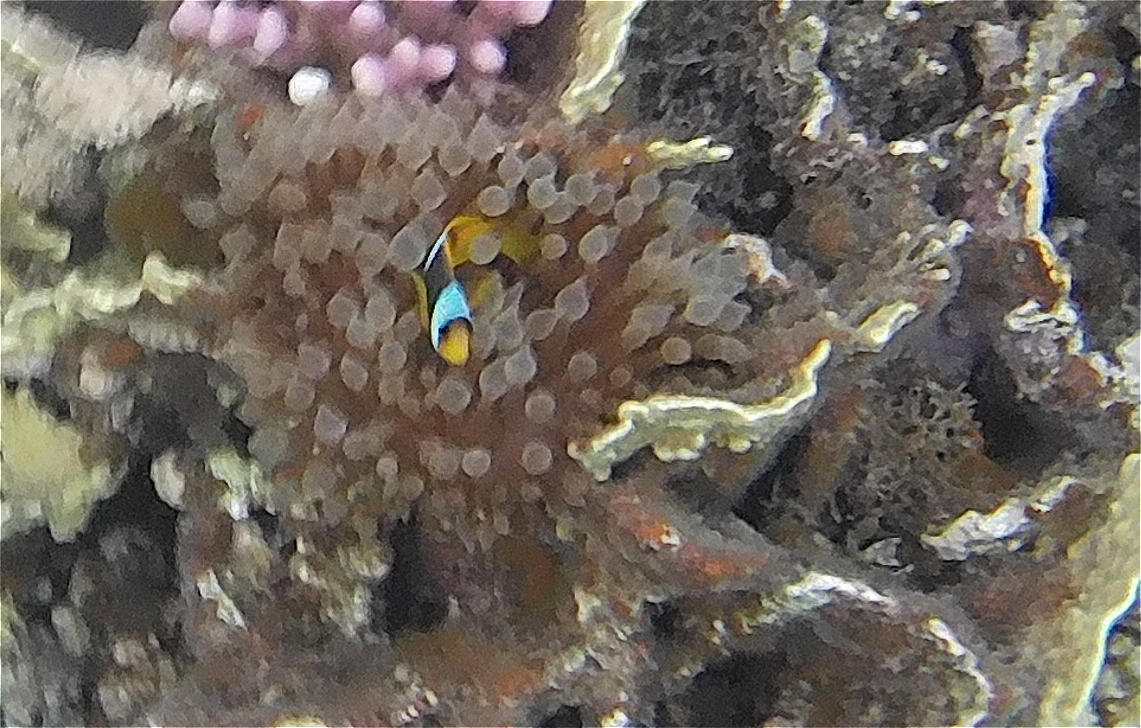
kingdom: Animalia
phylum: Cnidaria
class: Anthozoa
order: Actiniaria
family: Actiniidae
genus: Entacmaea
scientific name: Entacmaea quadricolor
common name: Bulb tentacle sea anemone
